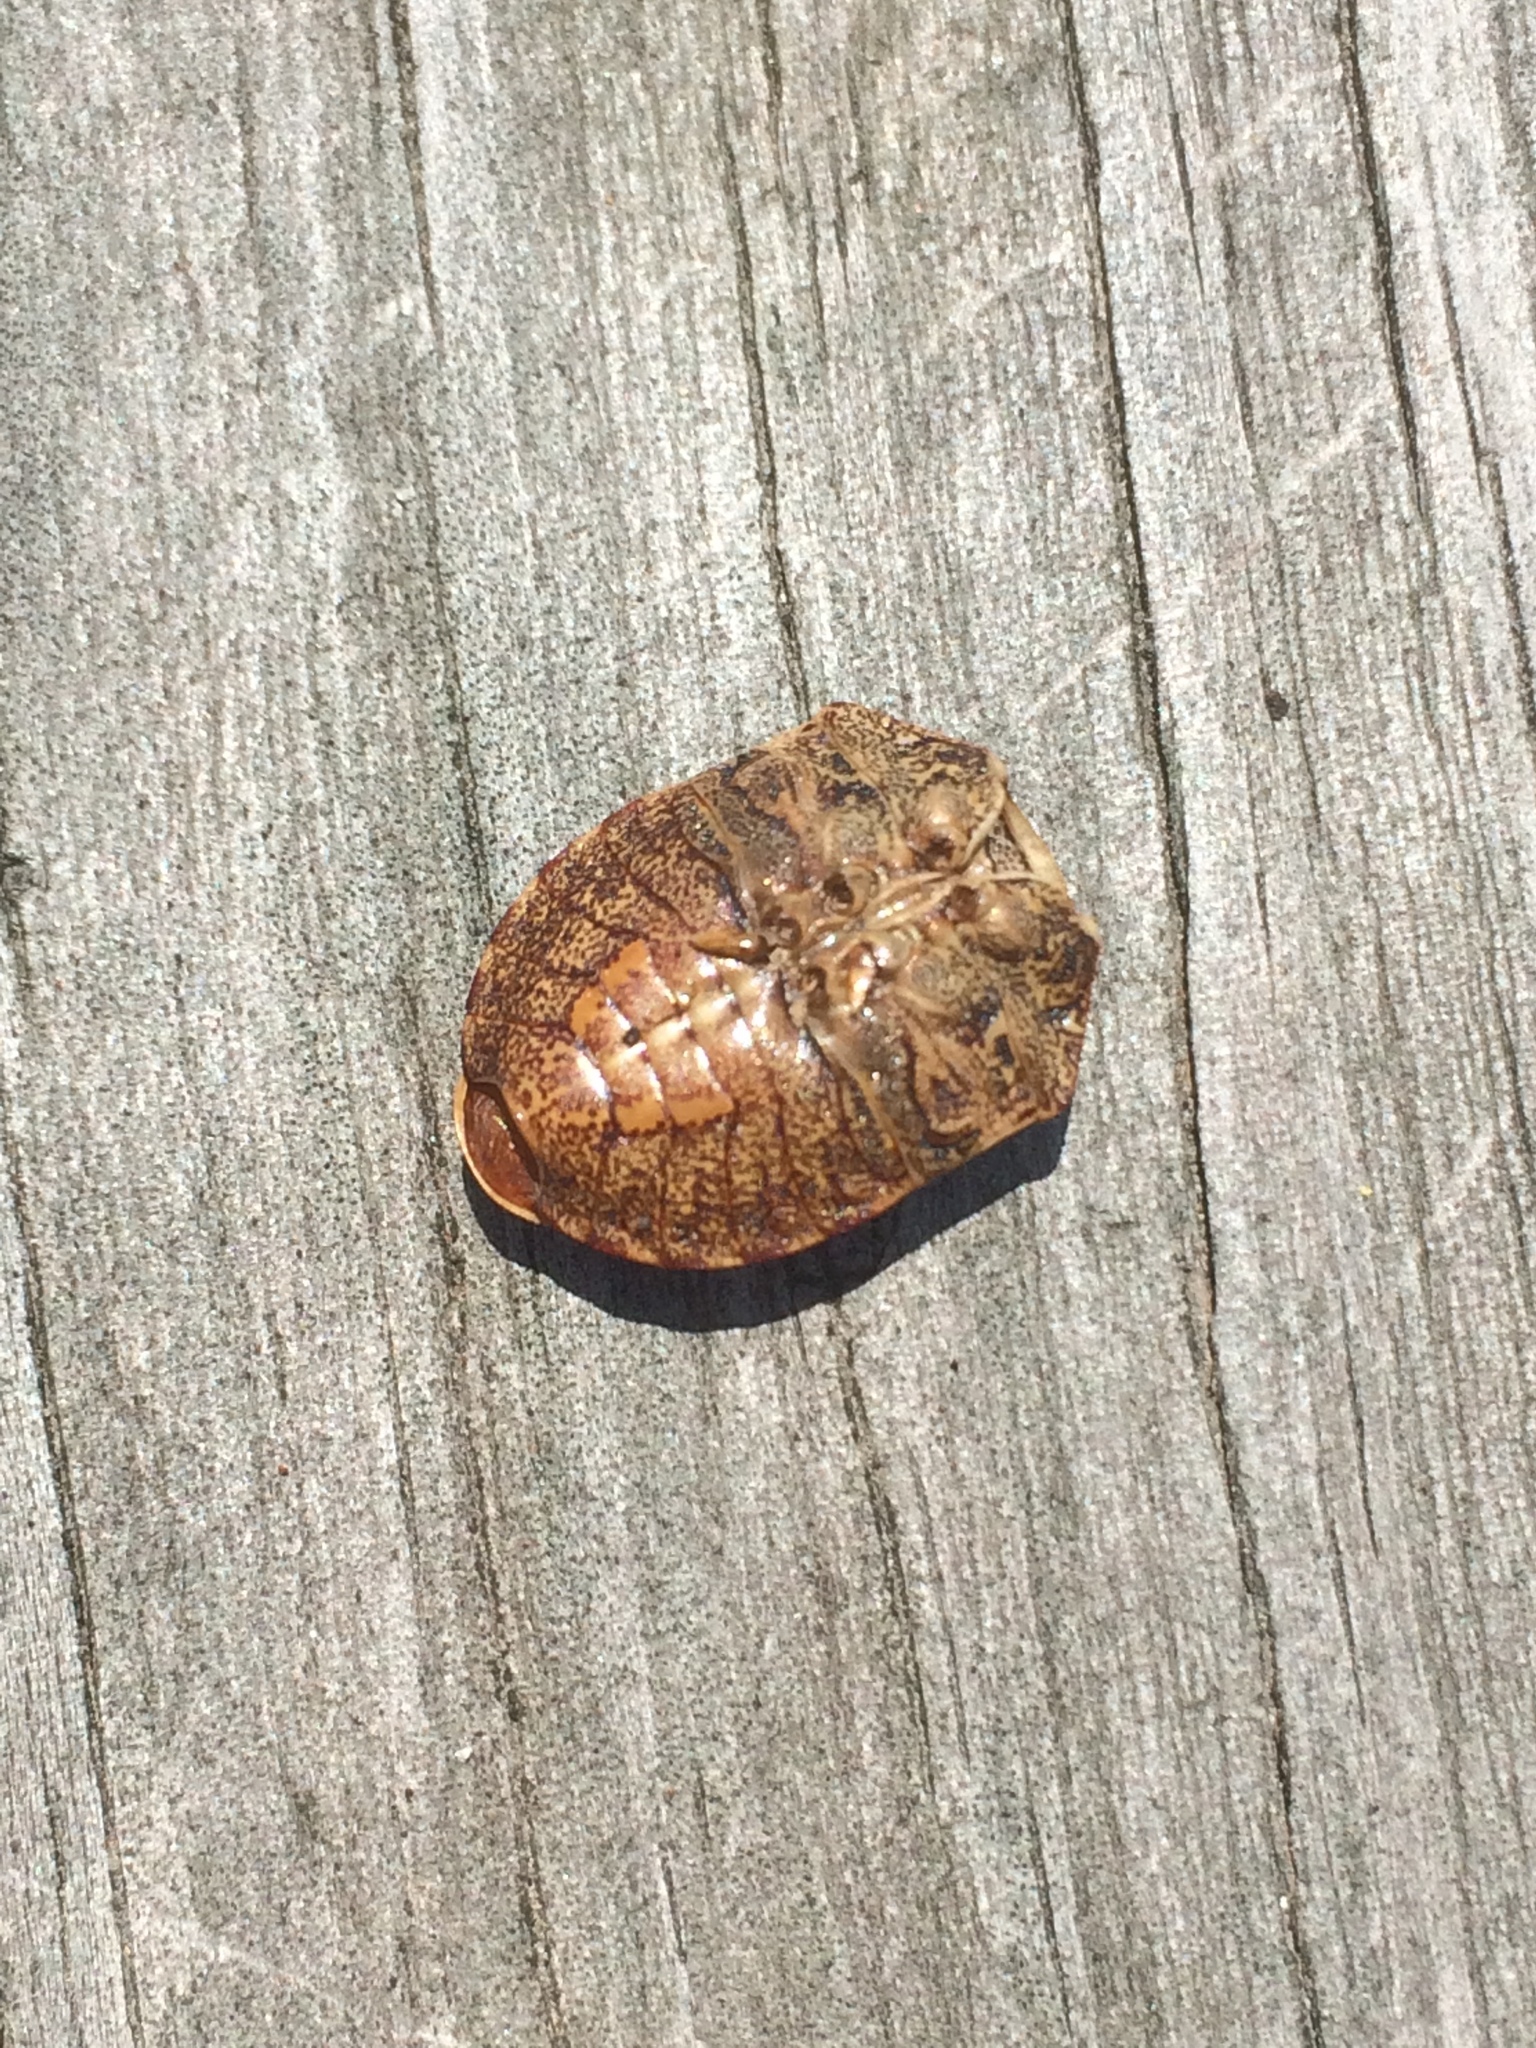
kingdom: Animalia
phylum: Arthropoda
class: Insecta
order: Hemiptera
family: Scutelleridae
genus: Tetyra
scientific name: Tetyra bipunctata
